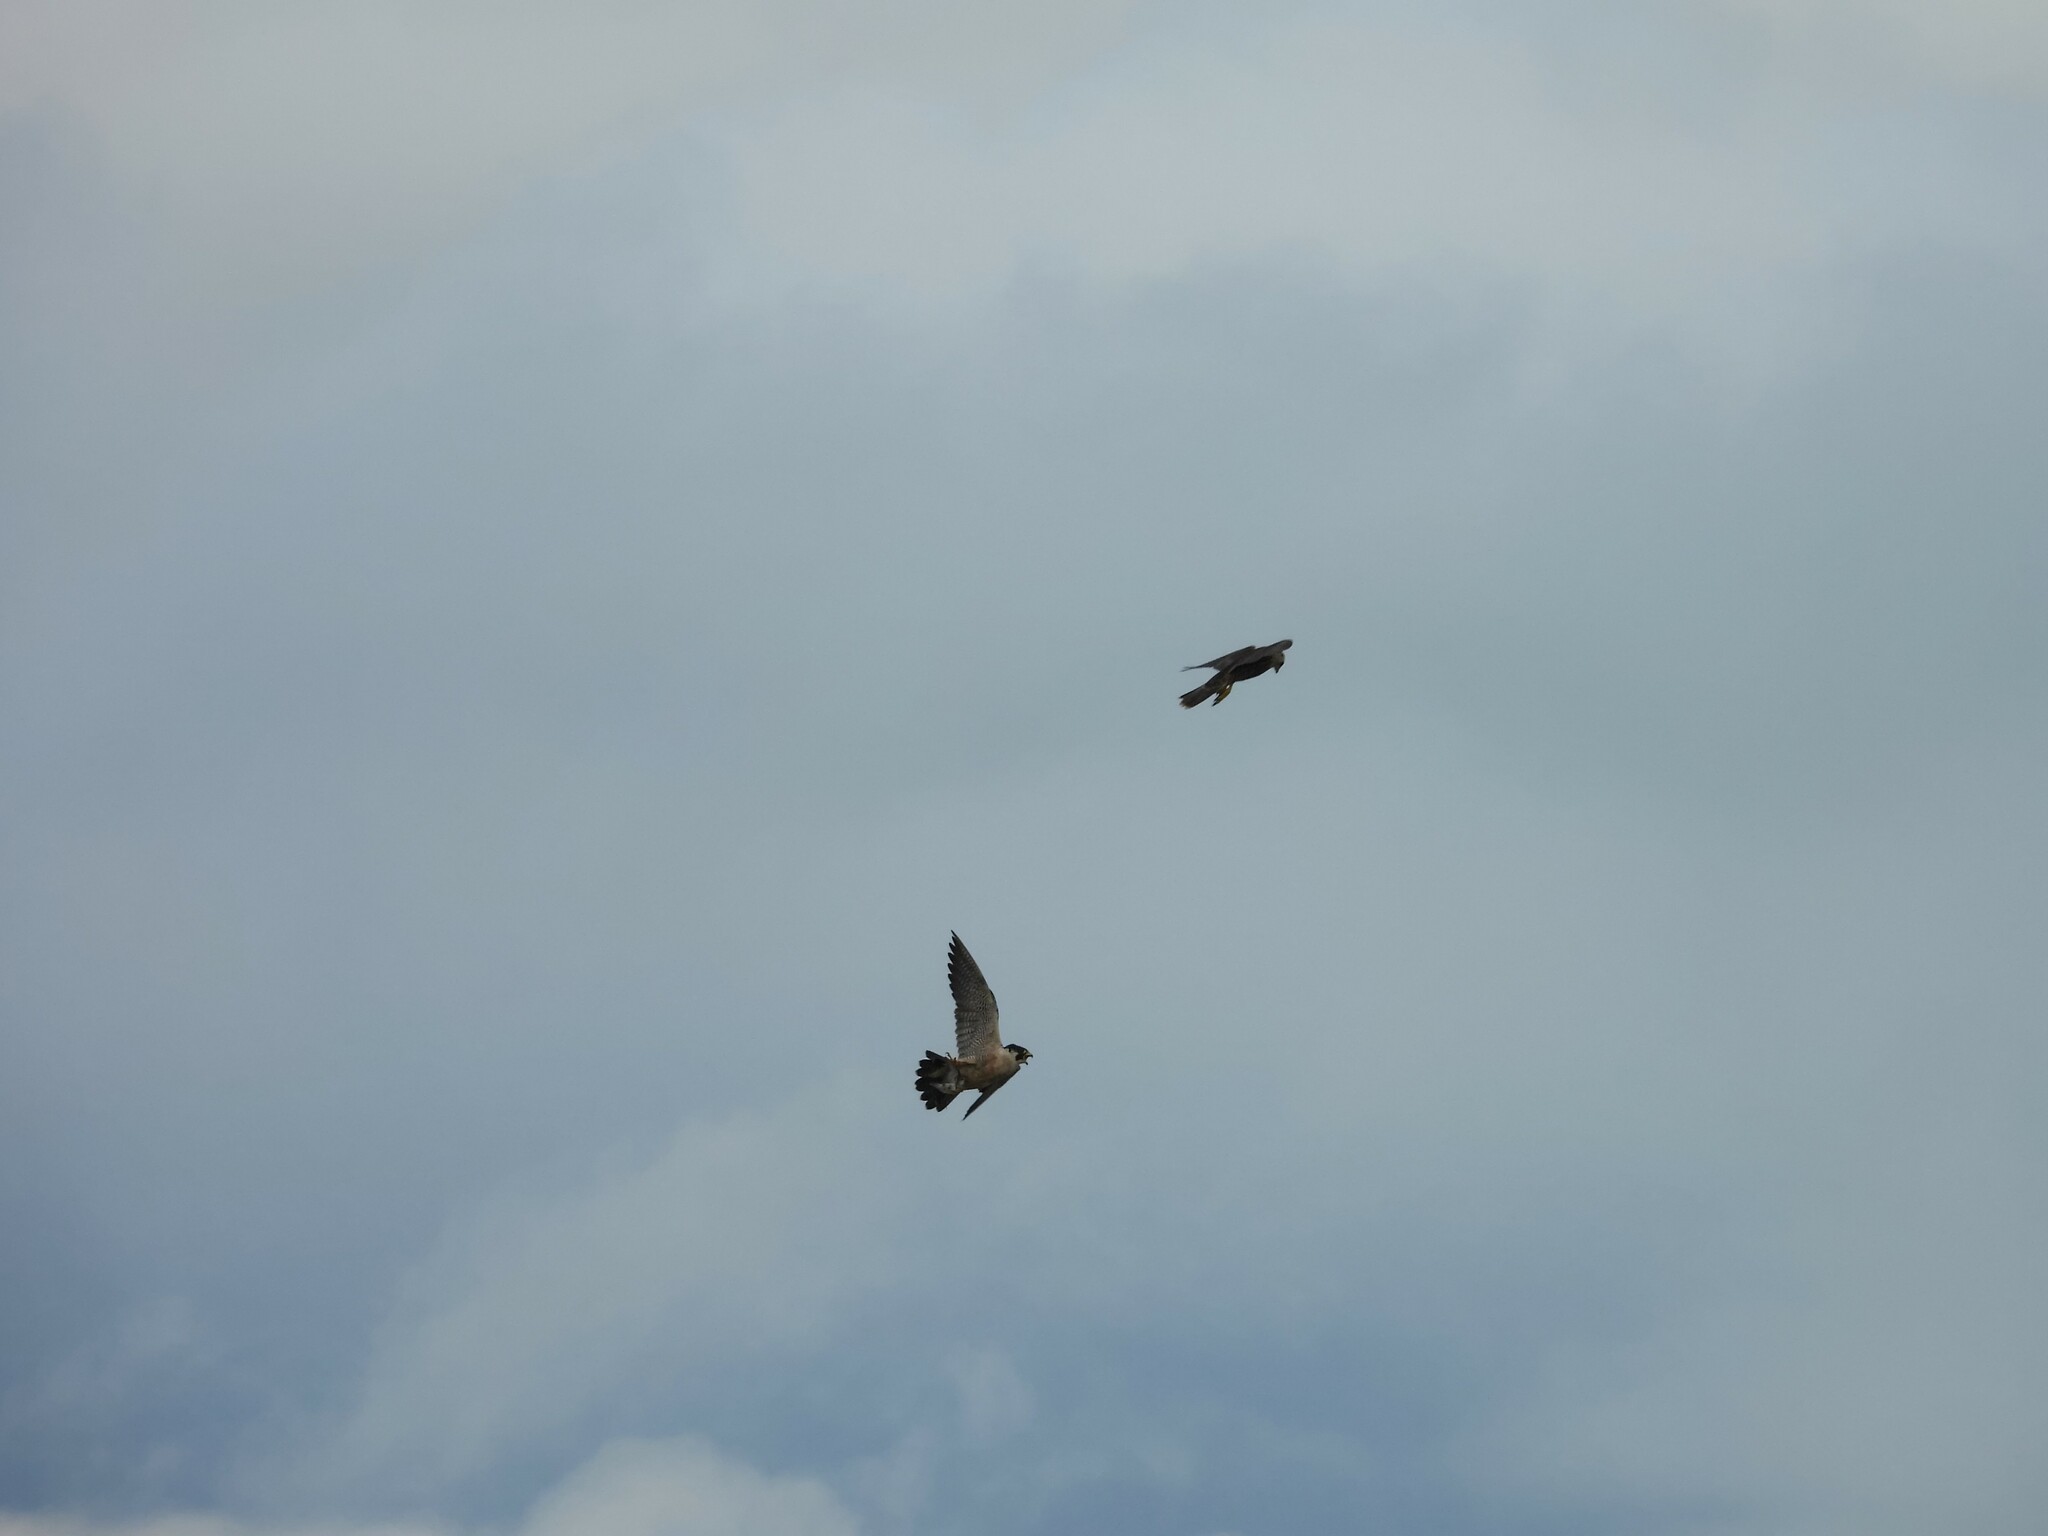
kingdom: Animalia
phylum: Chordata
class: Aves
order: Falconiformes
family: Falconidae
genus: Falco
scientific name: Falco peregrinus
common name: Peregrine falcon
